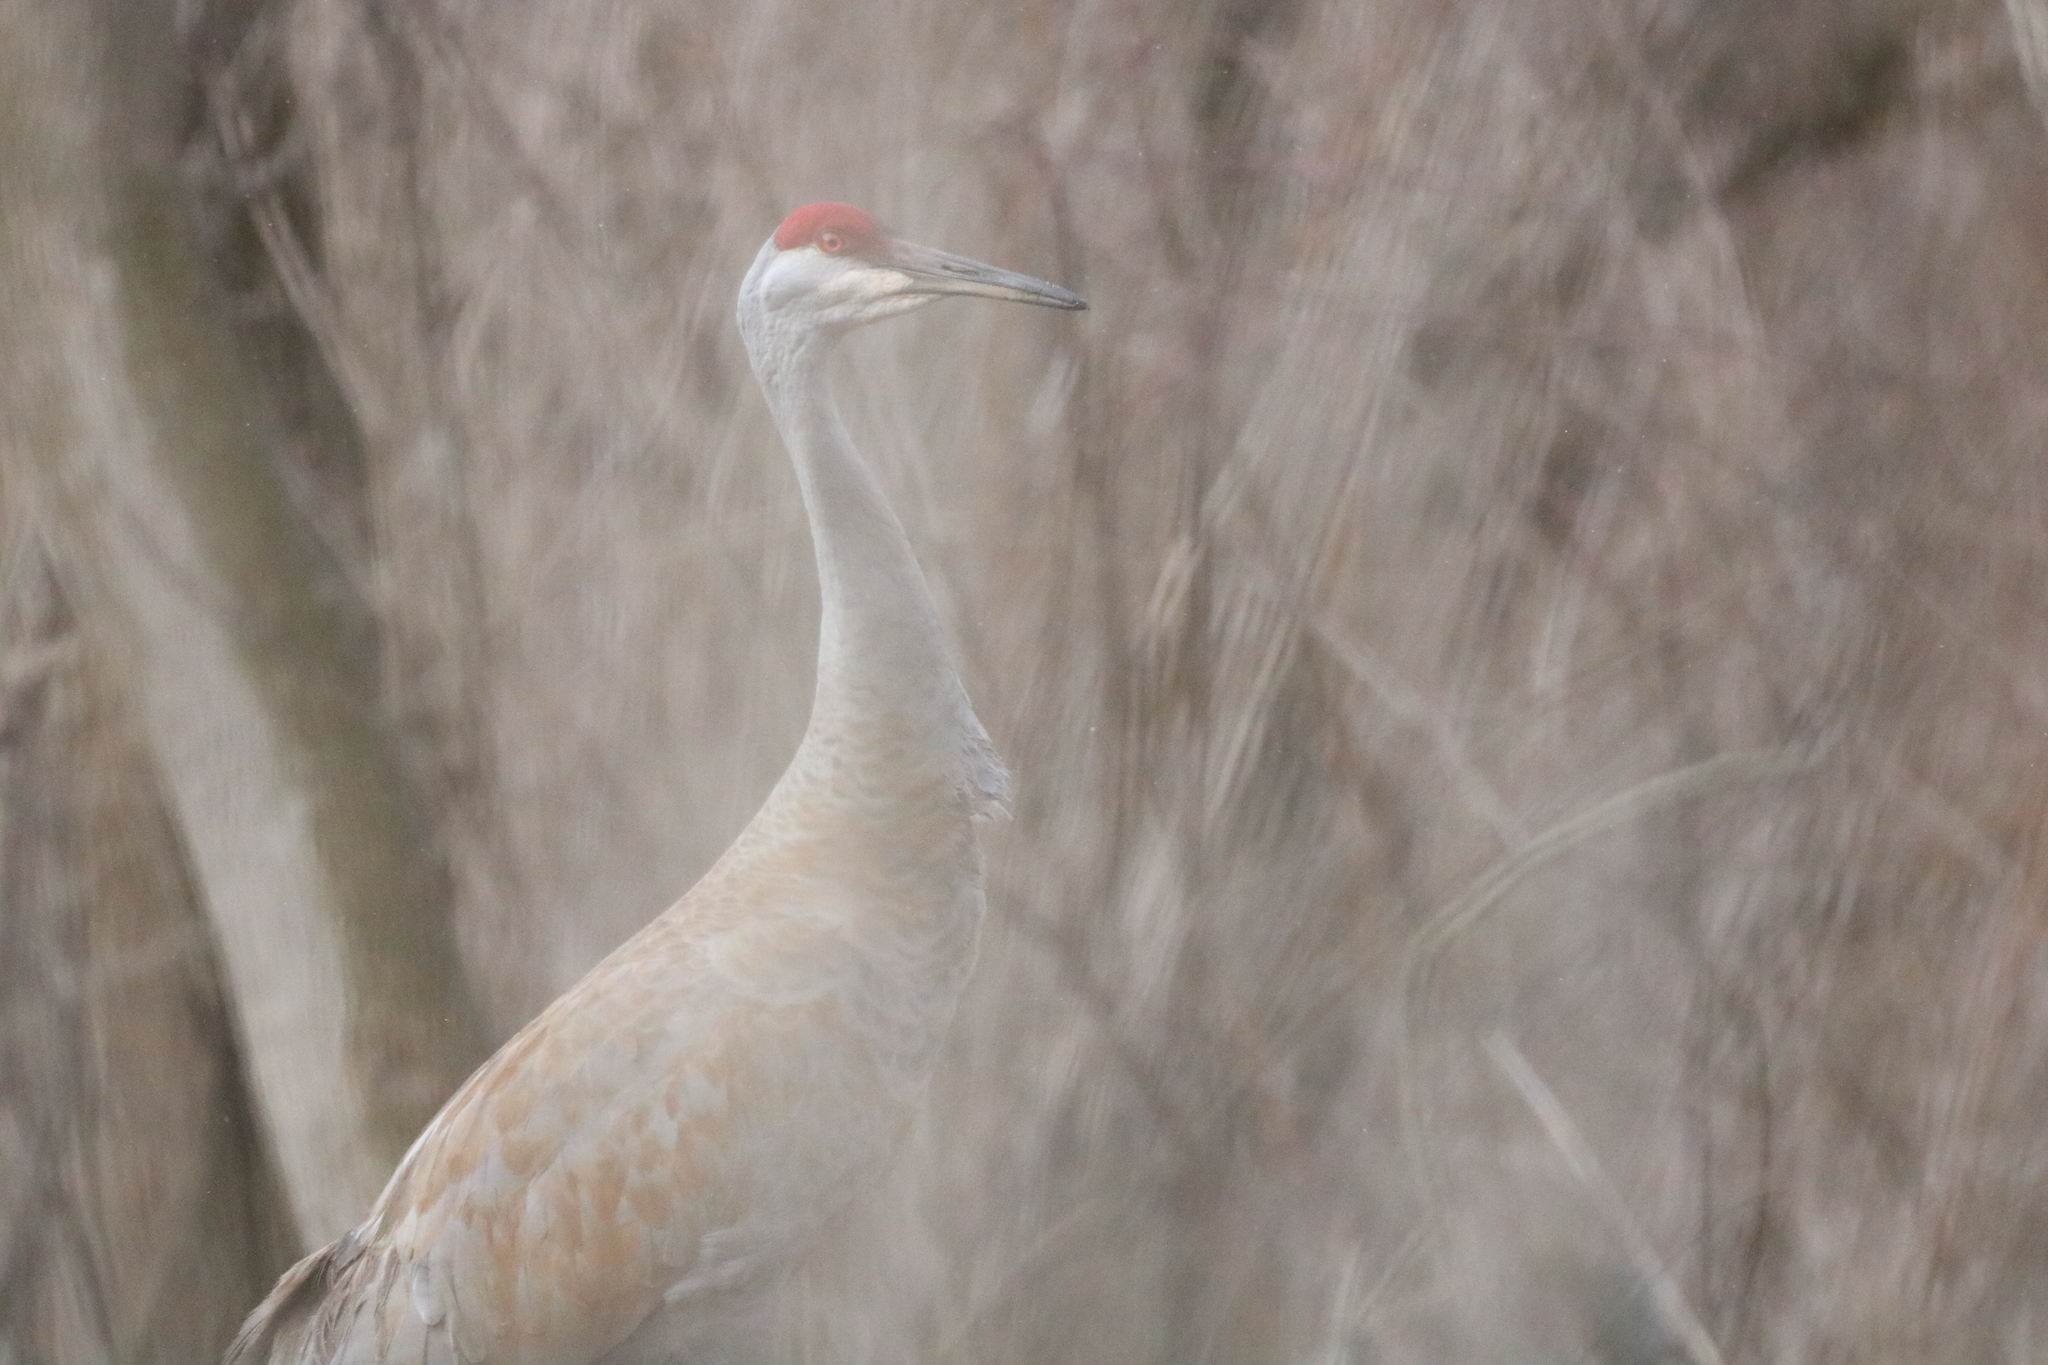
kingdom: Animalia
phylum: Chordata
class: Aves
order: Gruiformes
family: Gruidae
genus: Grus
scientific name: Grus canadensis
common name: Sandhill crane
